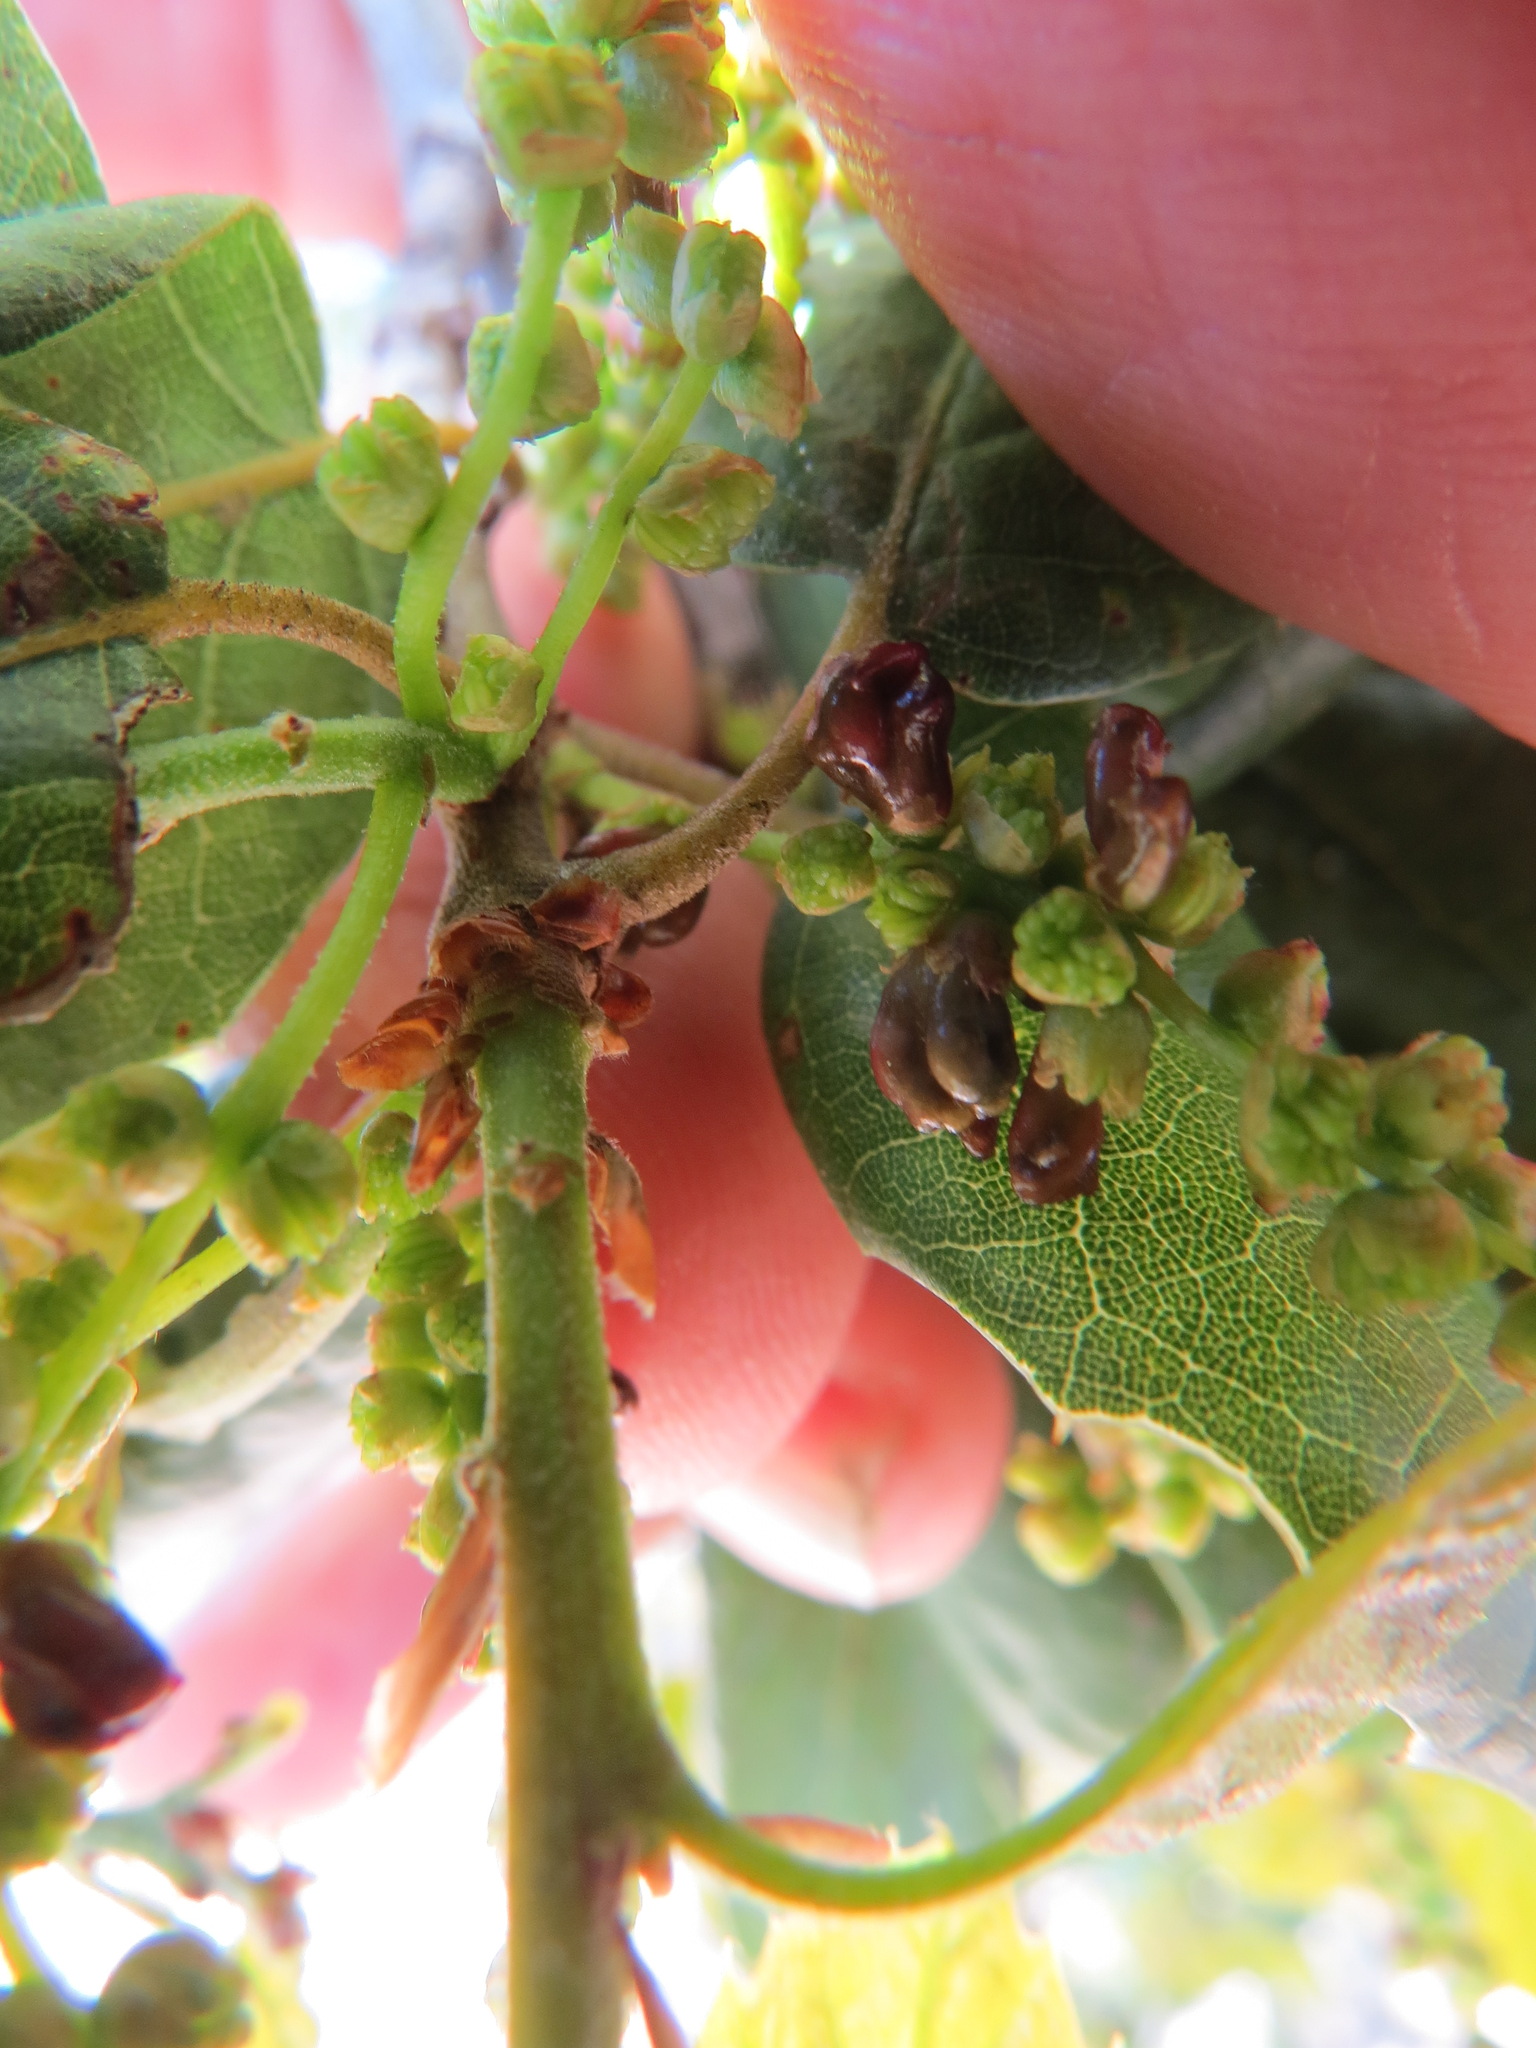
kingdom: Animalia
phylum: Arthropoda
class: Insecta
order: Hymenoptera
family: Cynipidae
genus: Dryocosmus
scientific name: Dryocosmus
